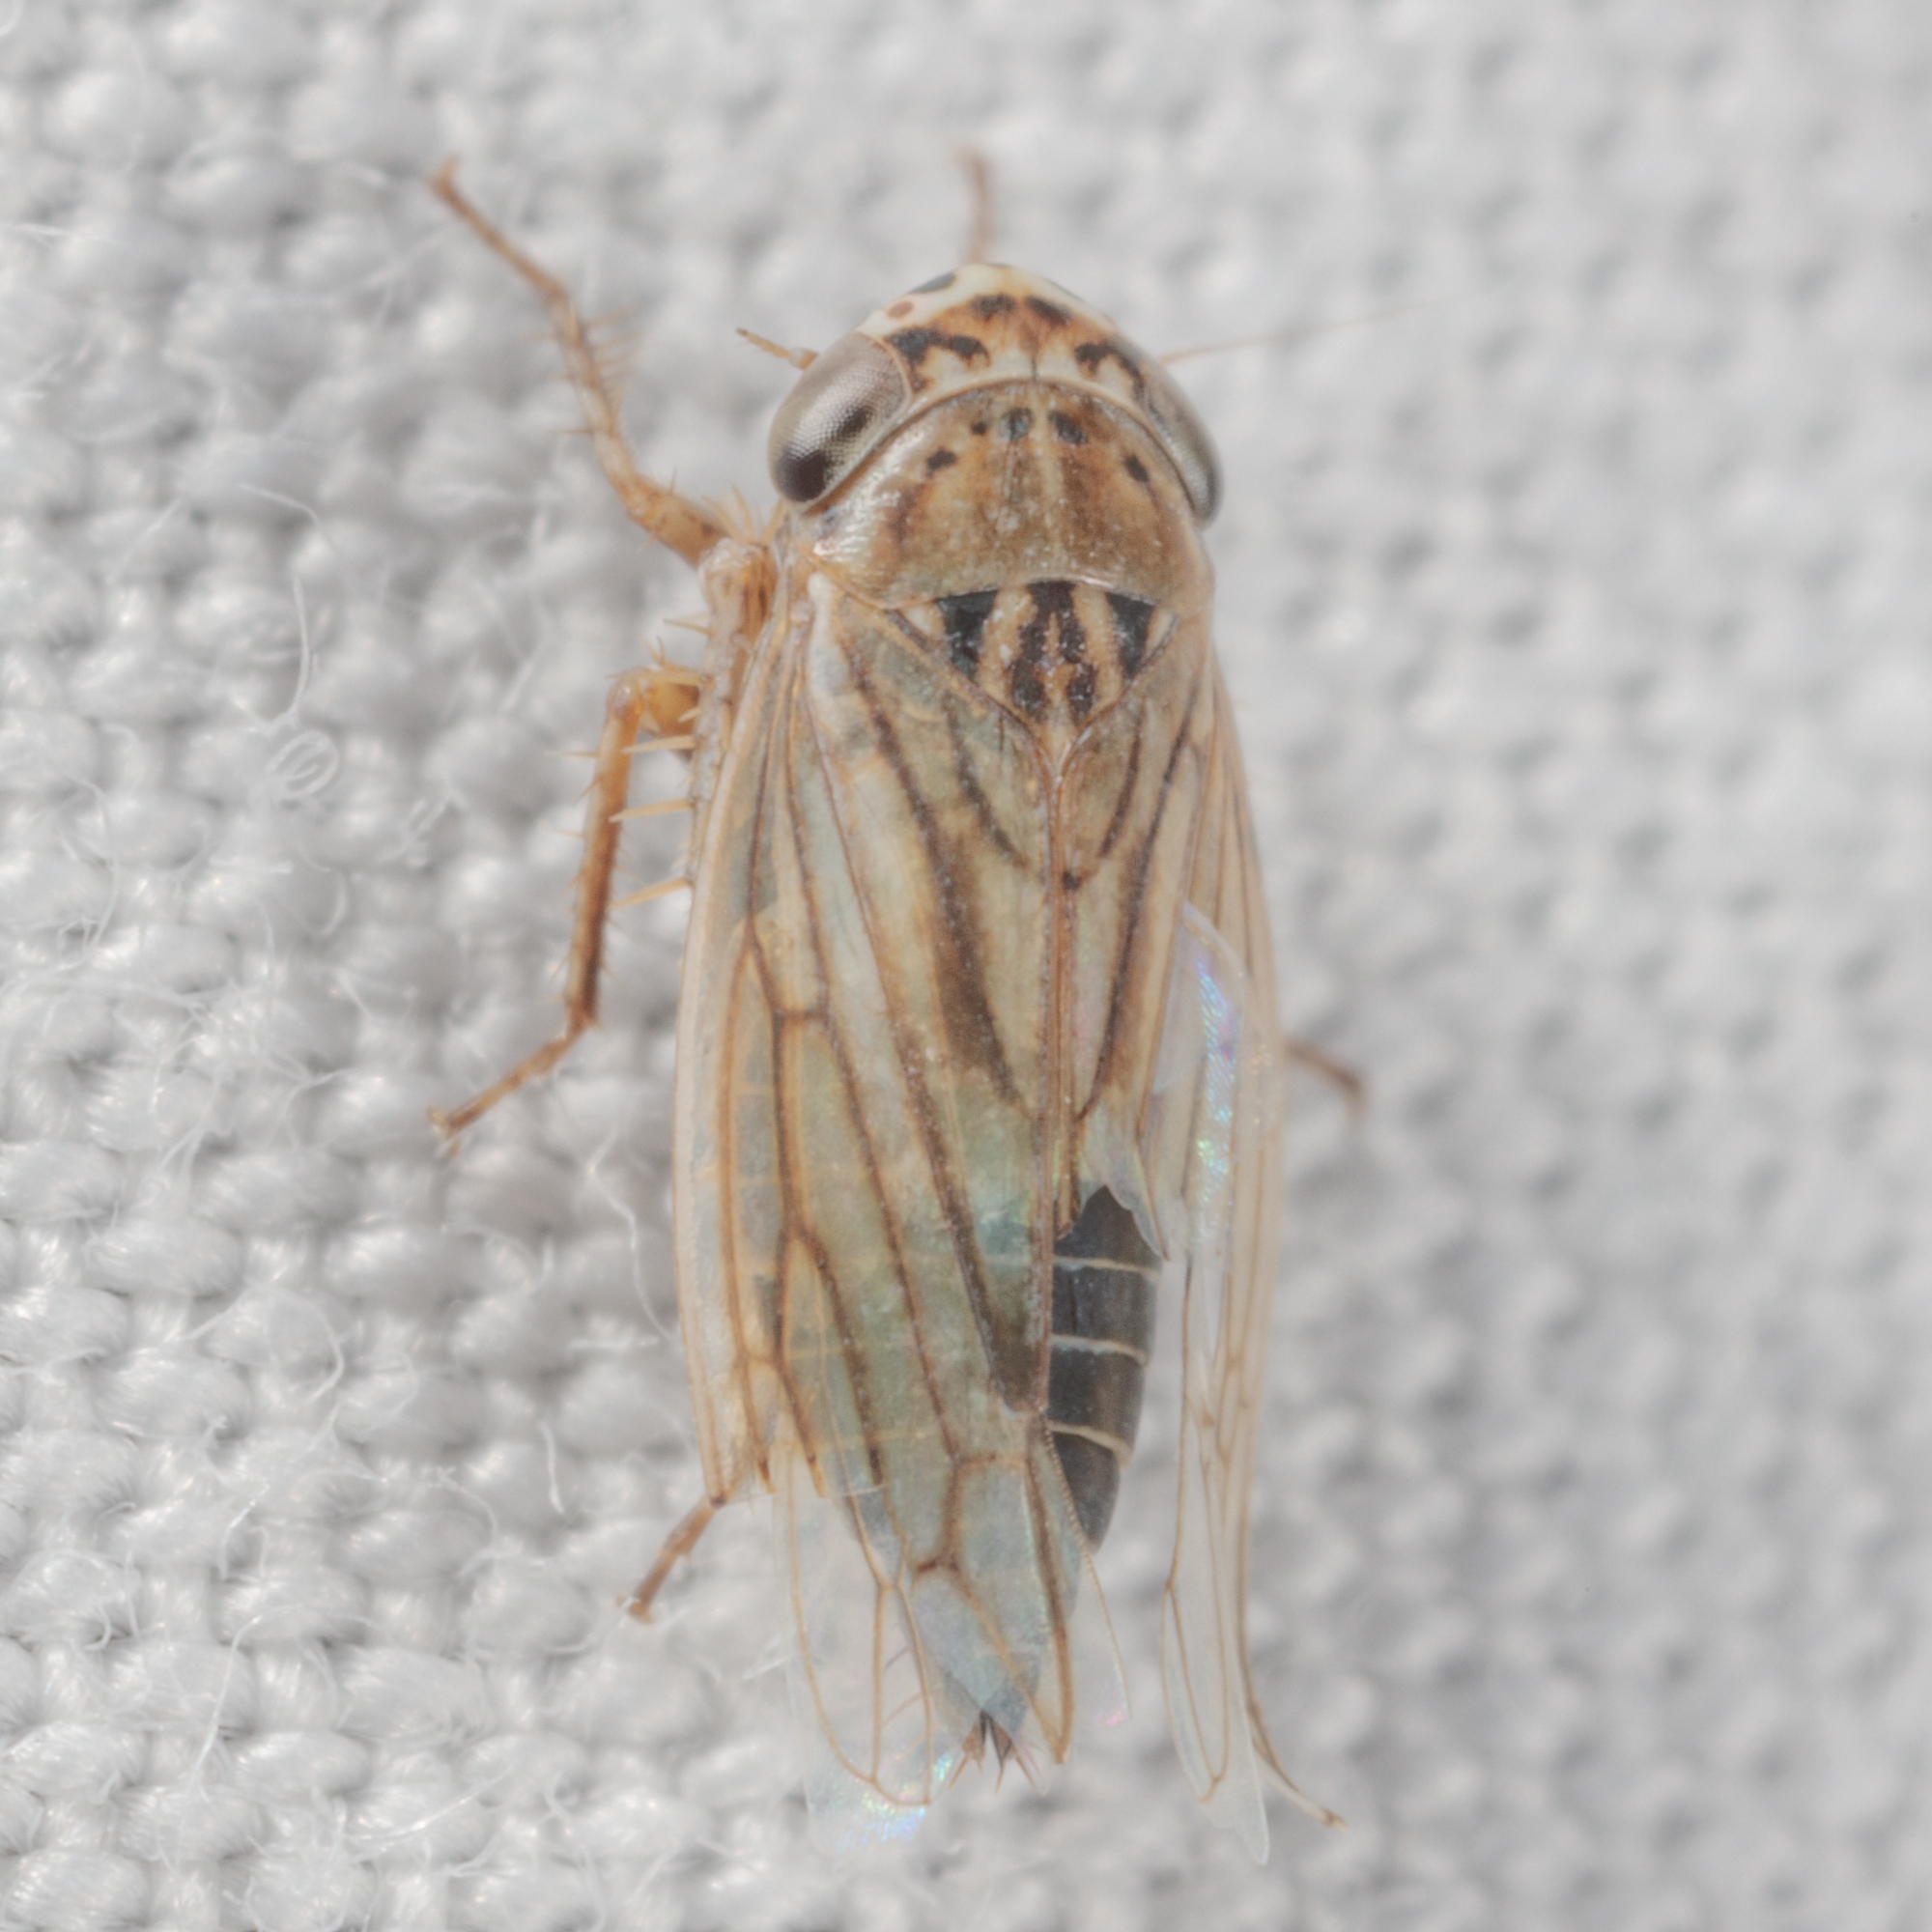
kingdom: Animalia
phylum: Arthropoda
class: Insecta
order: Hemiptera
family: Cicadellidae
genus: Exitianus
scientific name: Exitianus exitiosus
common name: Gray lawn leafhopper
